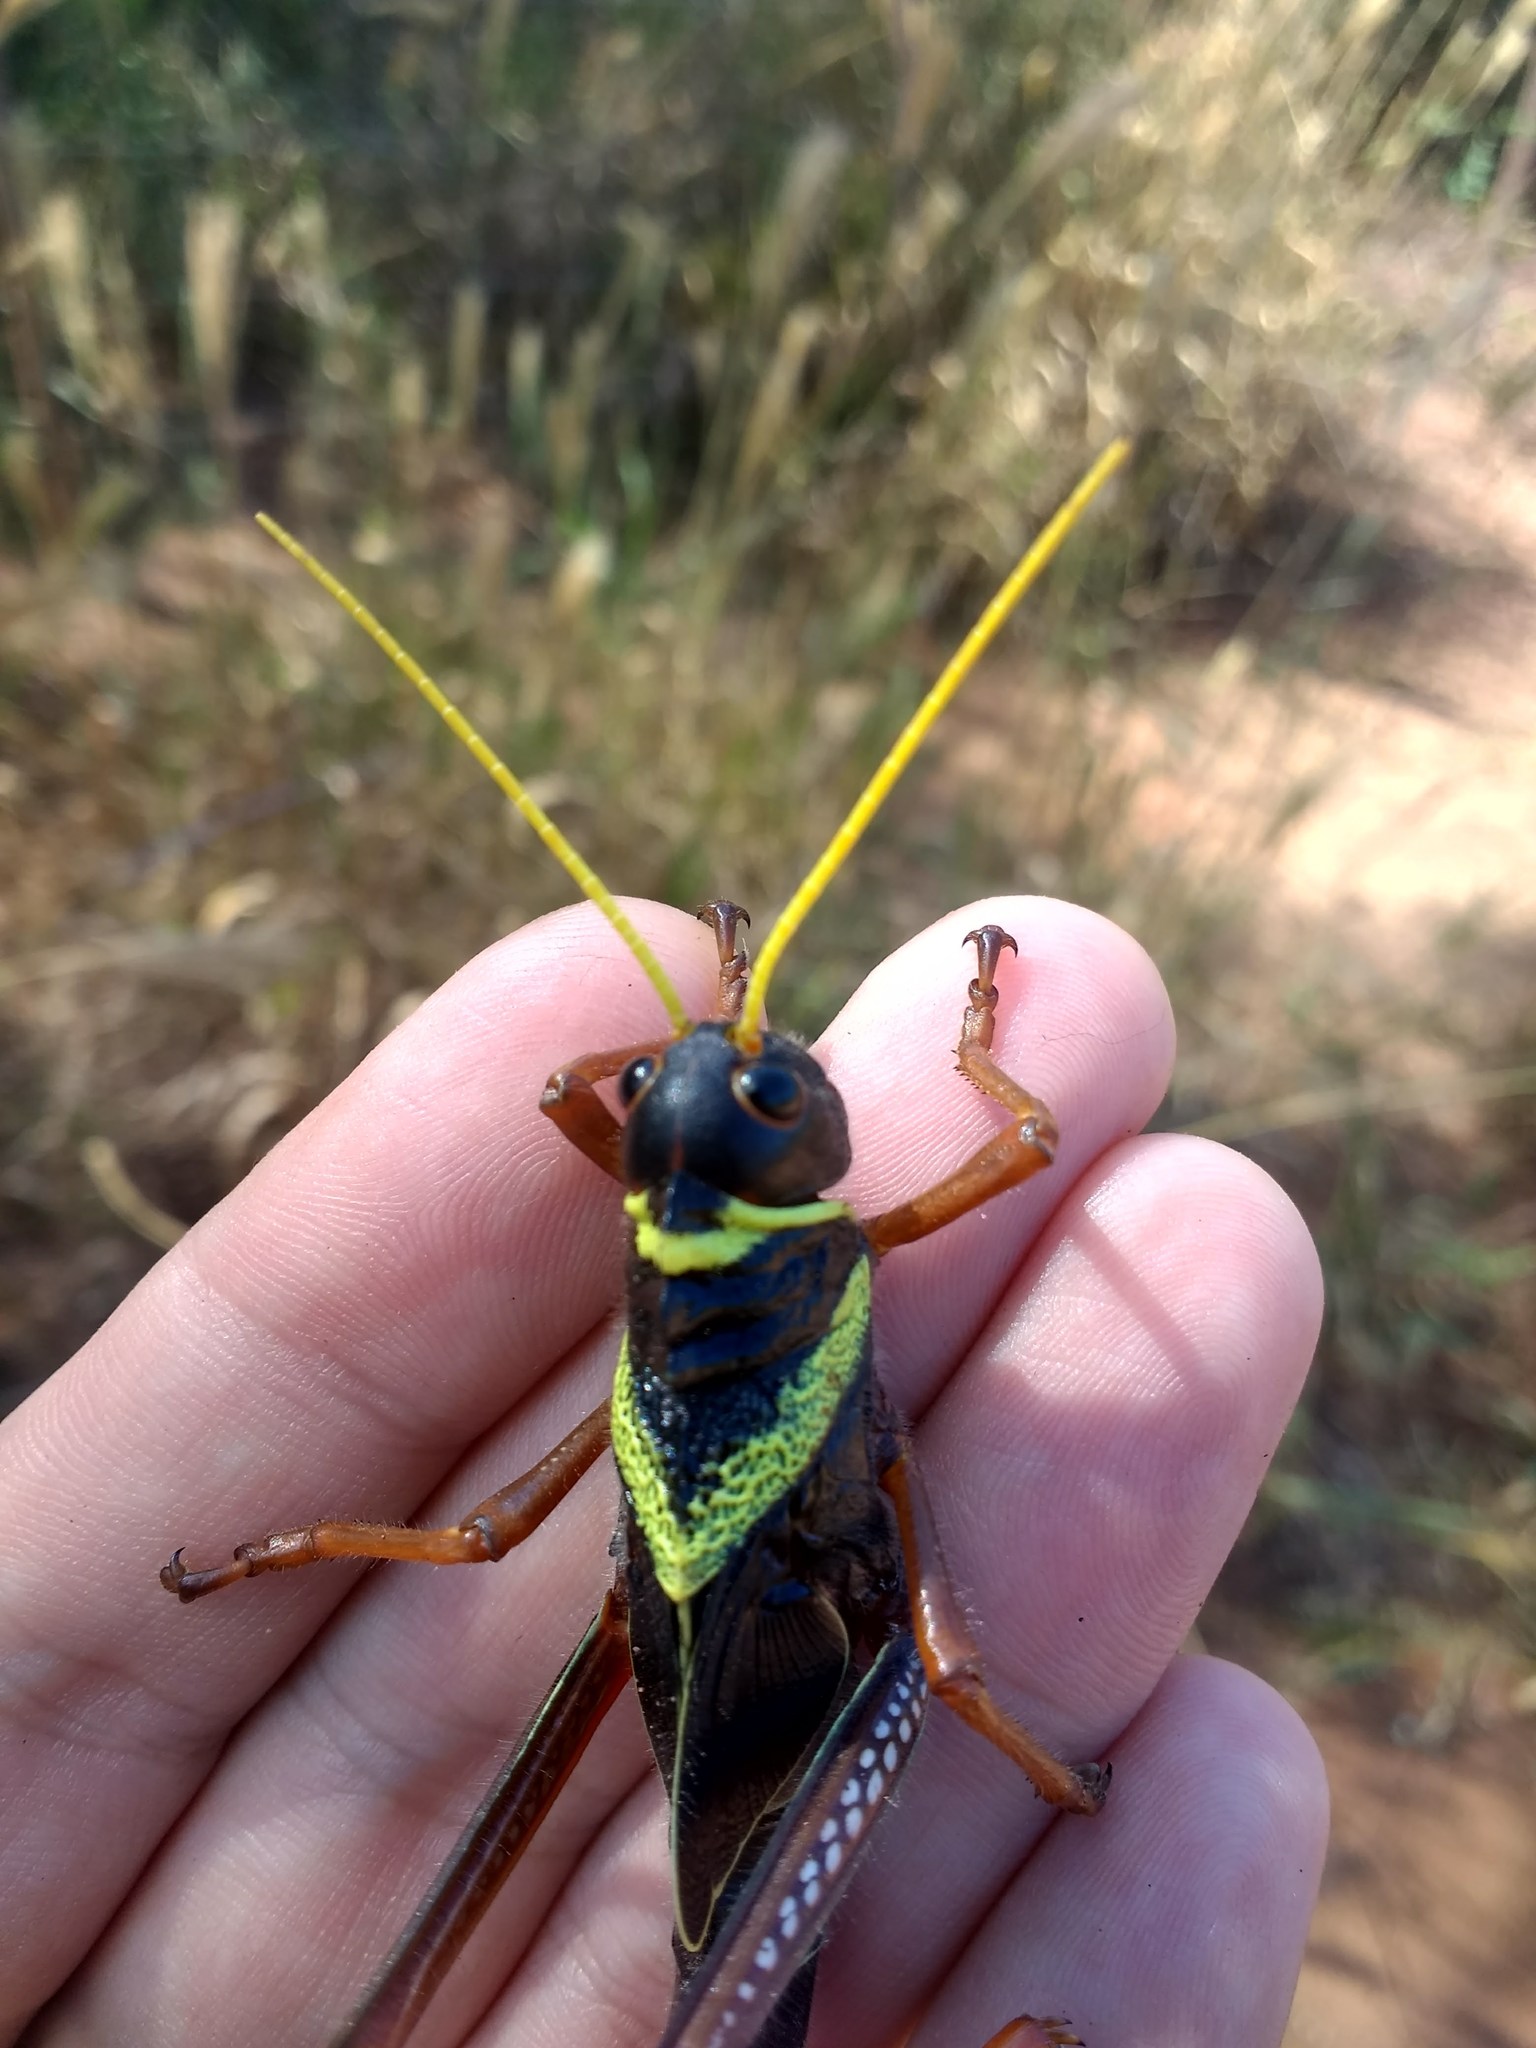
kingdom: Animalia
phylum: Arthropoda
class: Insecta
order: Orthoptera
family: Romaleidae
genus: Tropidacris
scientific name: Tropidacris collaris
